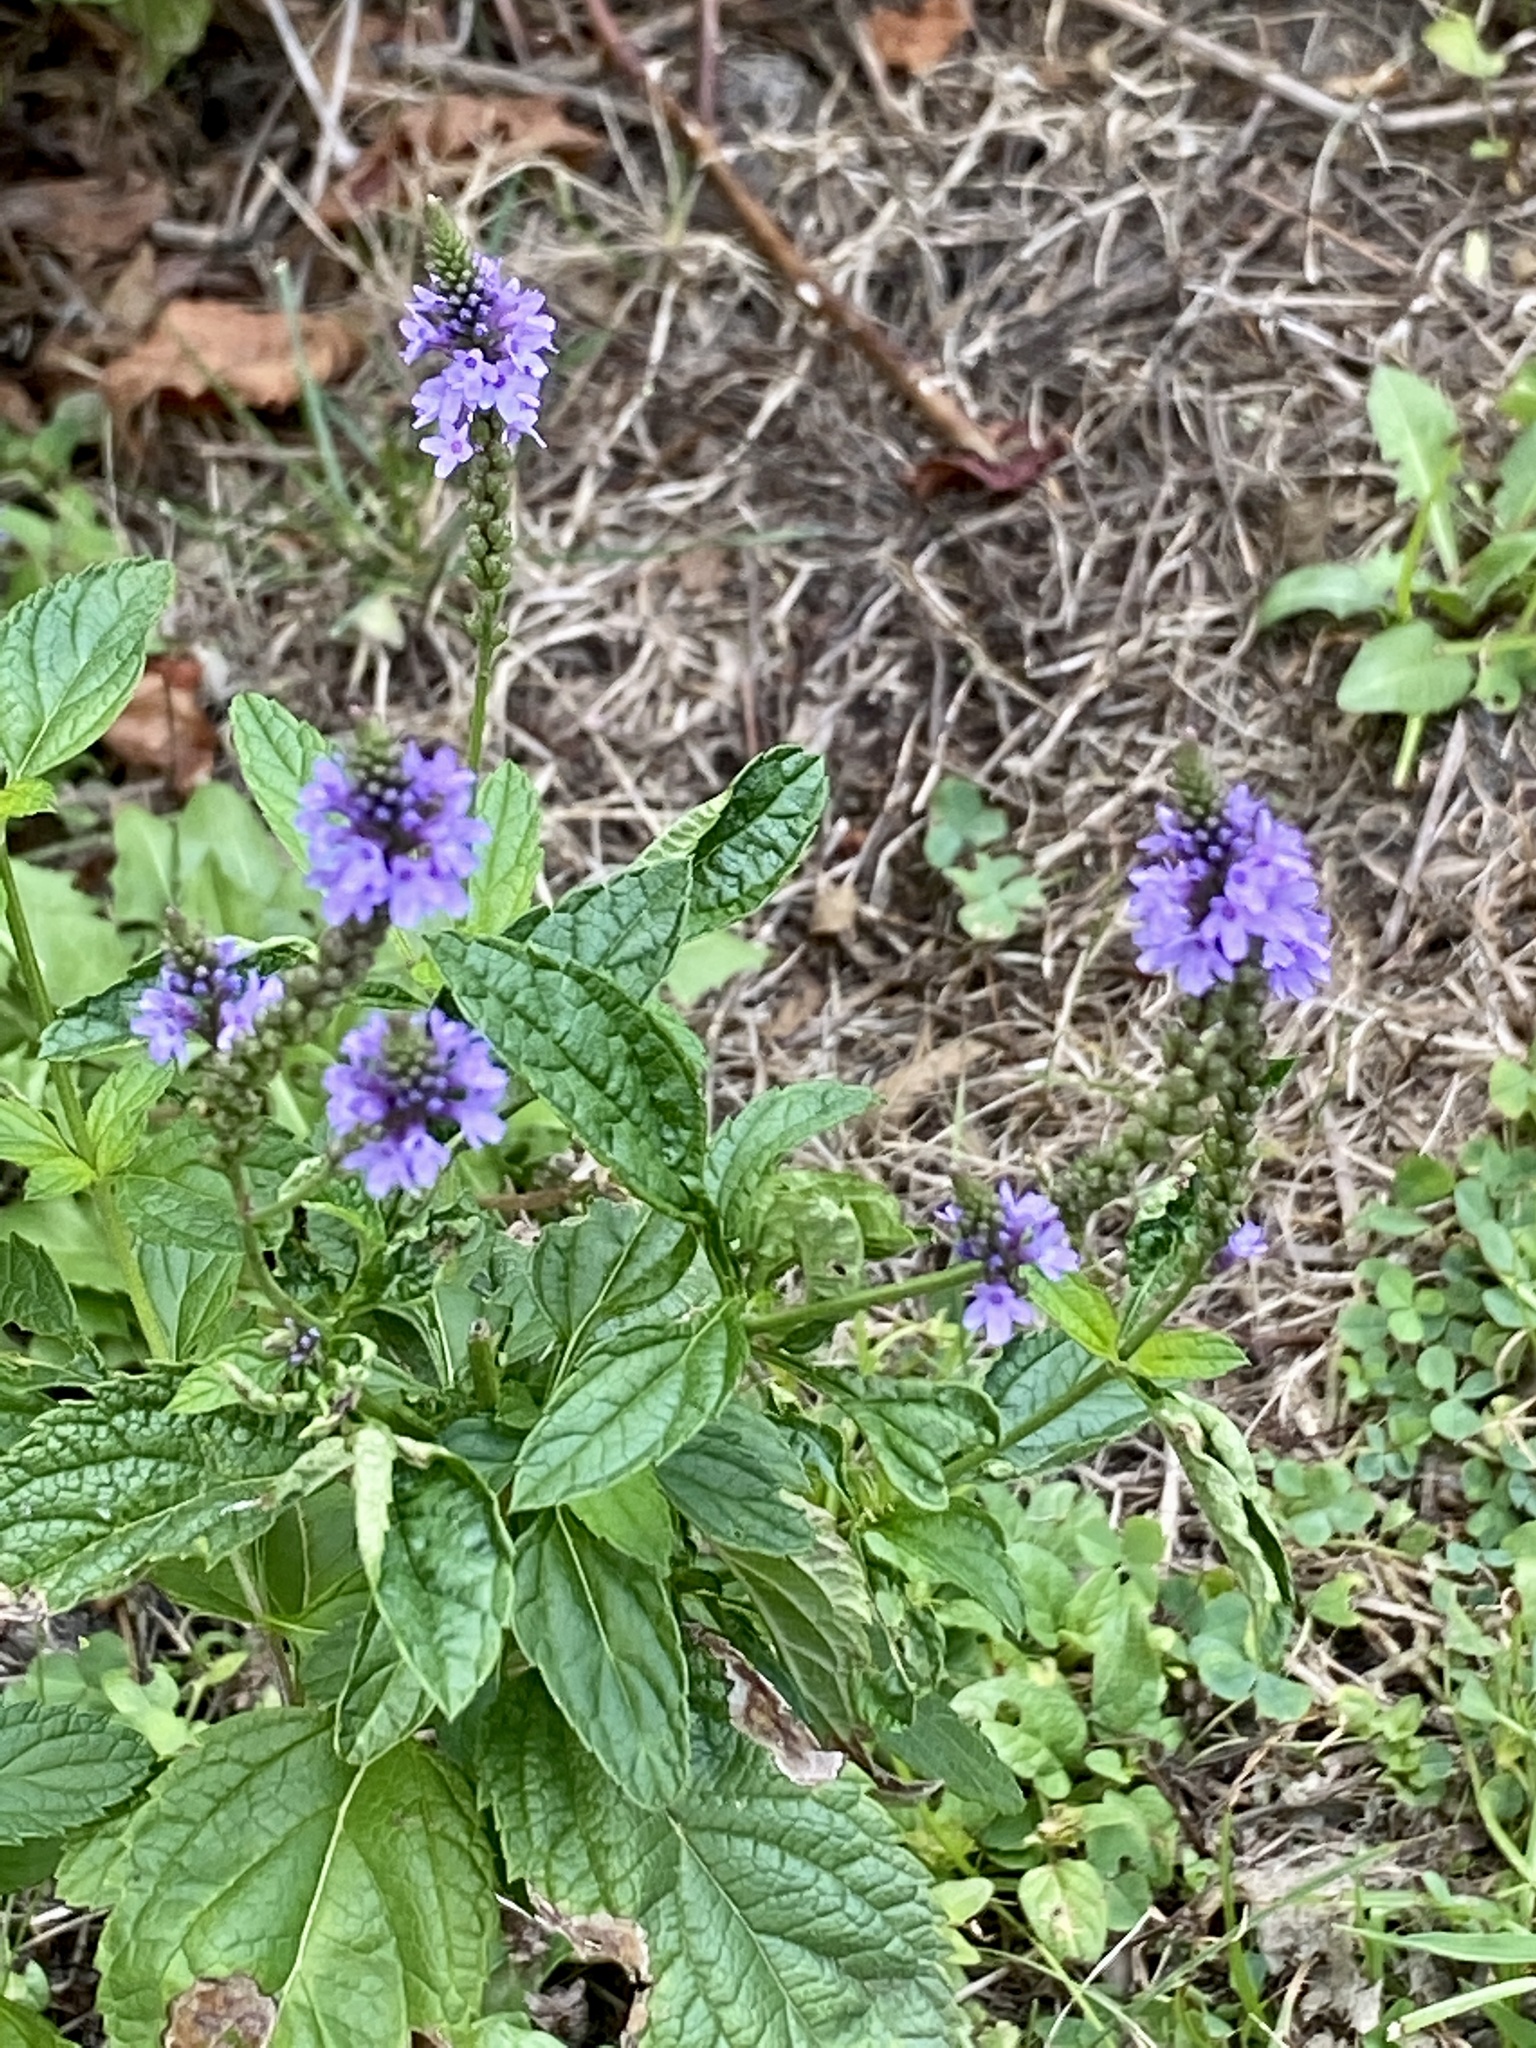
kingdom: Plantae
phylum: Tracheophyta
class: Magnoliopsida
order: Lamiales
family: Verbenaceae
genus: Verbena
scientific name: Verbena hastata
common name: American blue vervain
